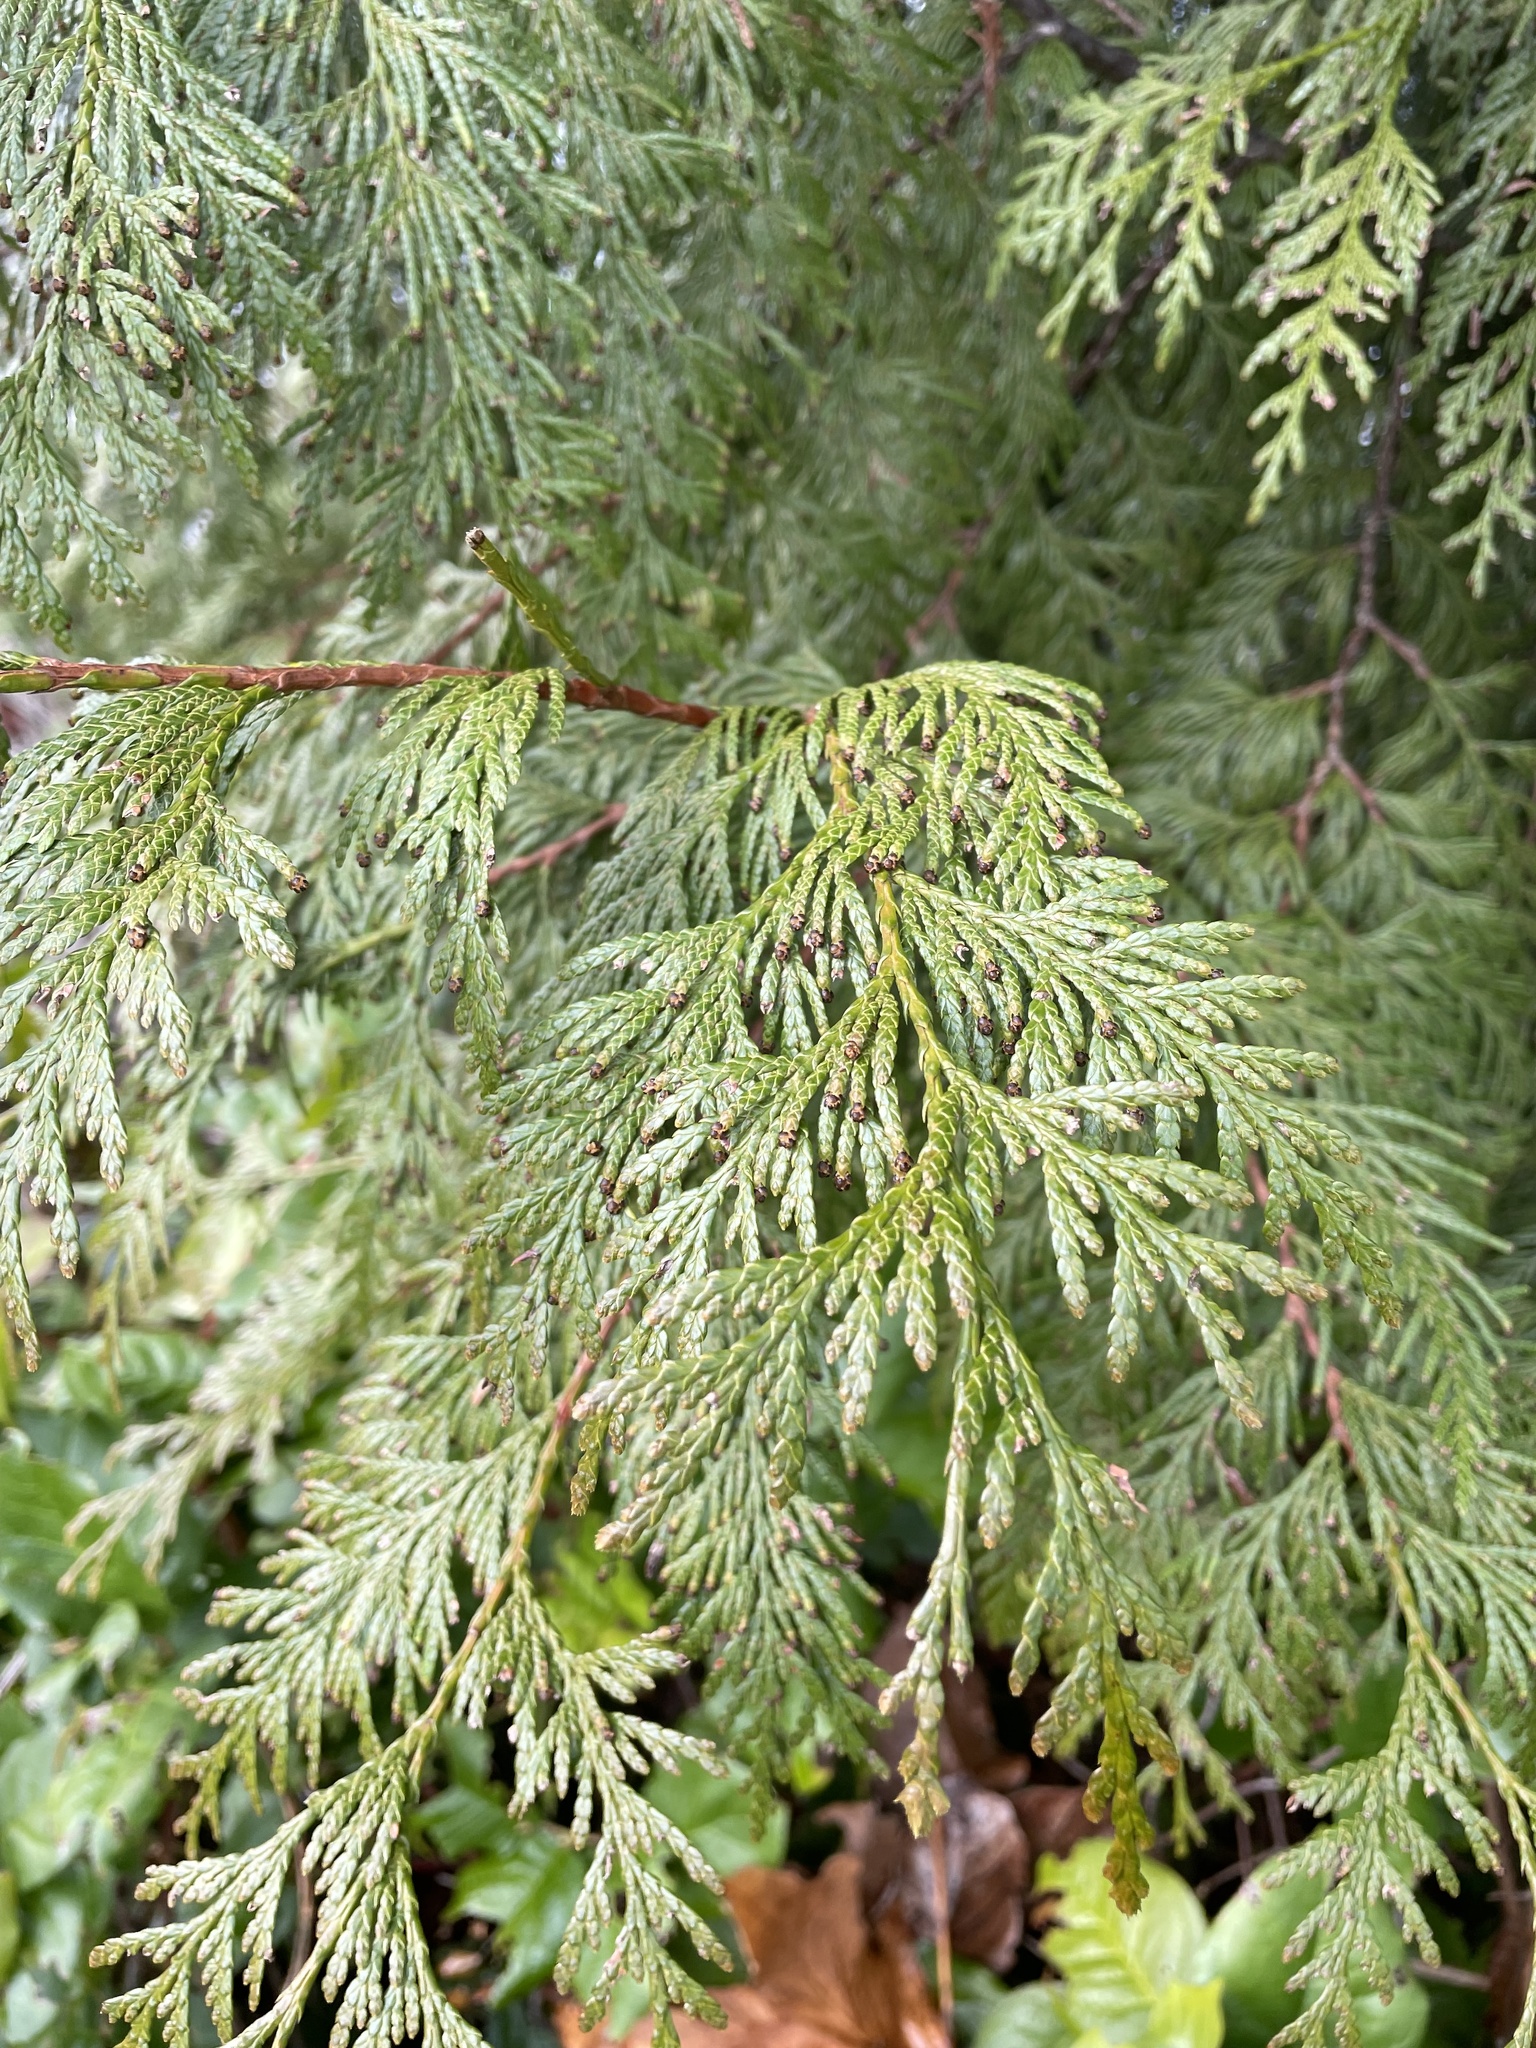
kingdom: Plantae
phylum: Tracheophyta
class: Pinopsida
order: Pinales
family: Cupressaceae
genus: Thuja
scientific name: Thuja plicata
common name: Western red-cedar
